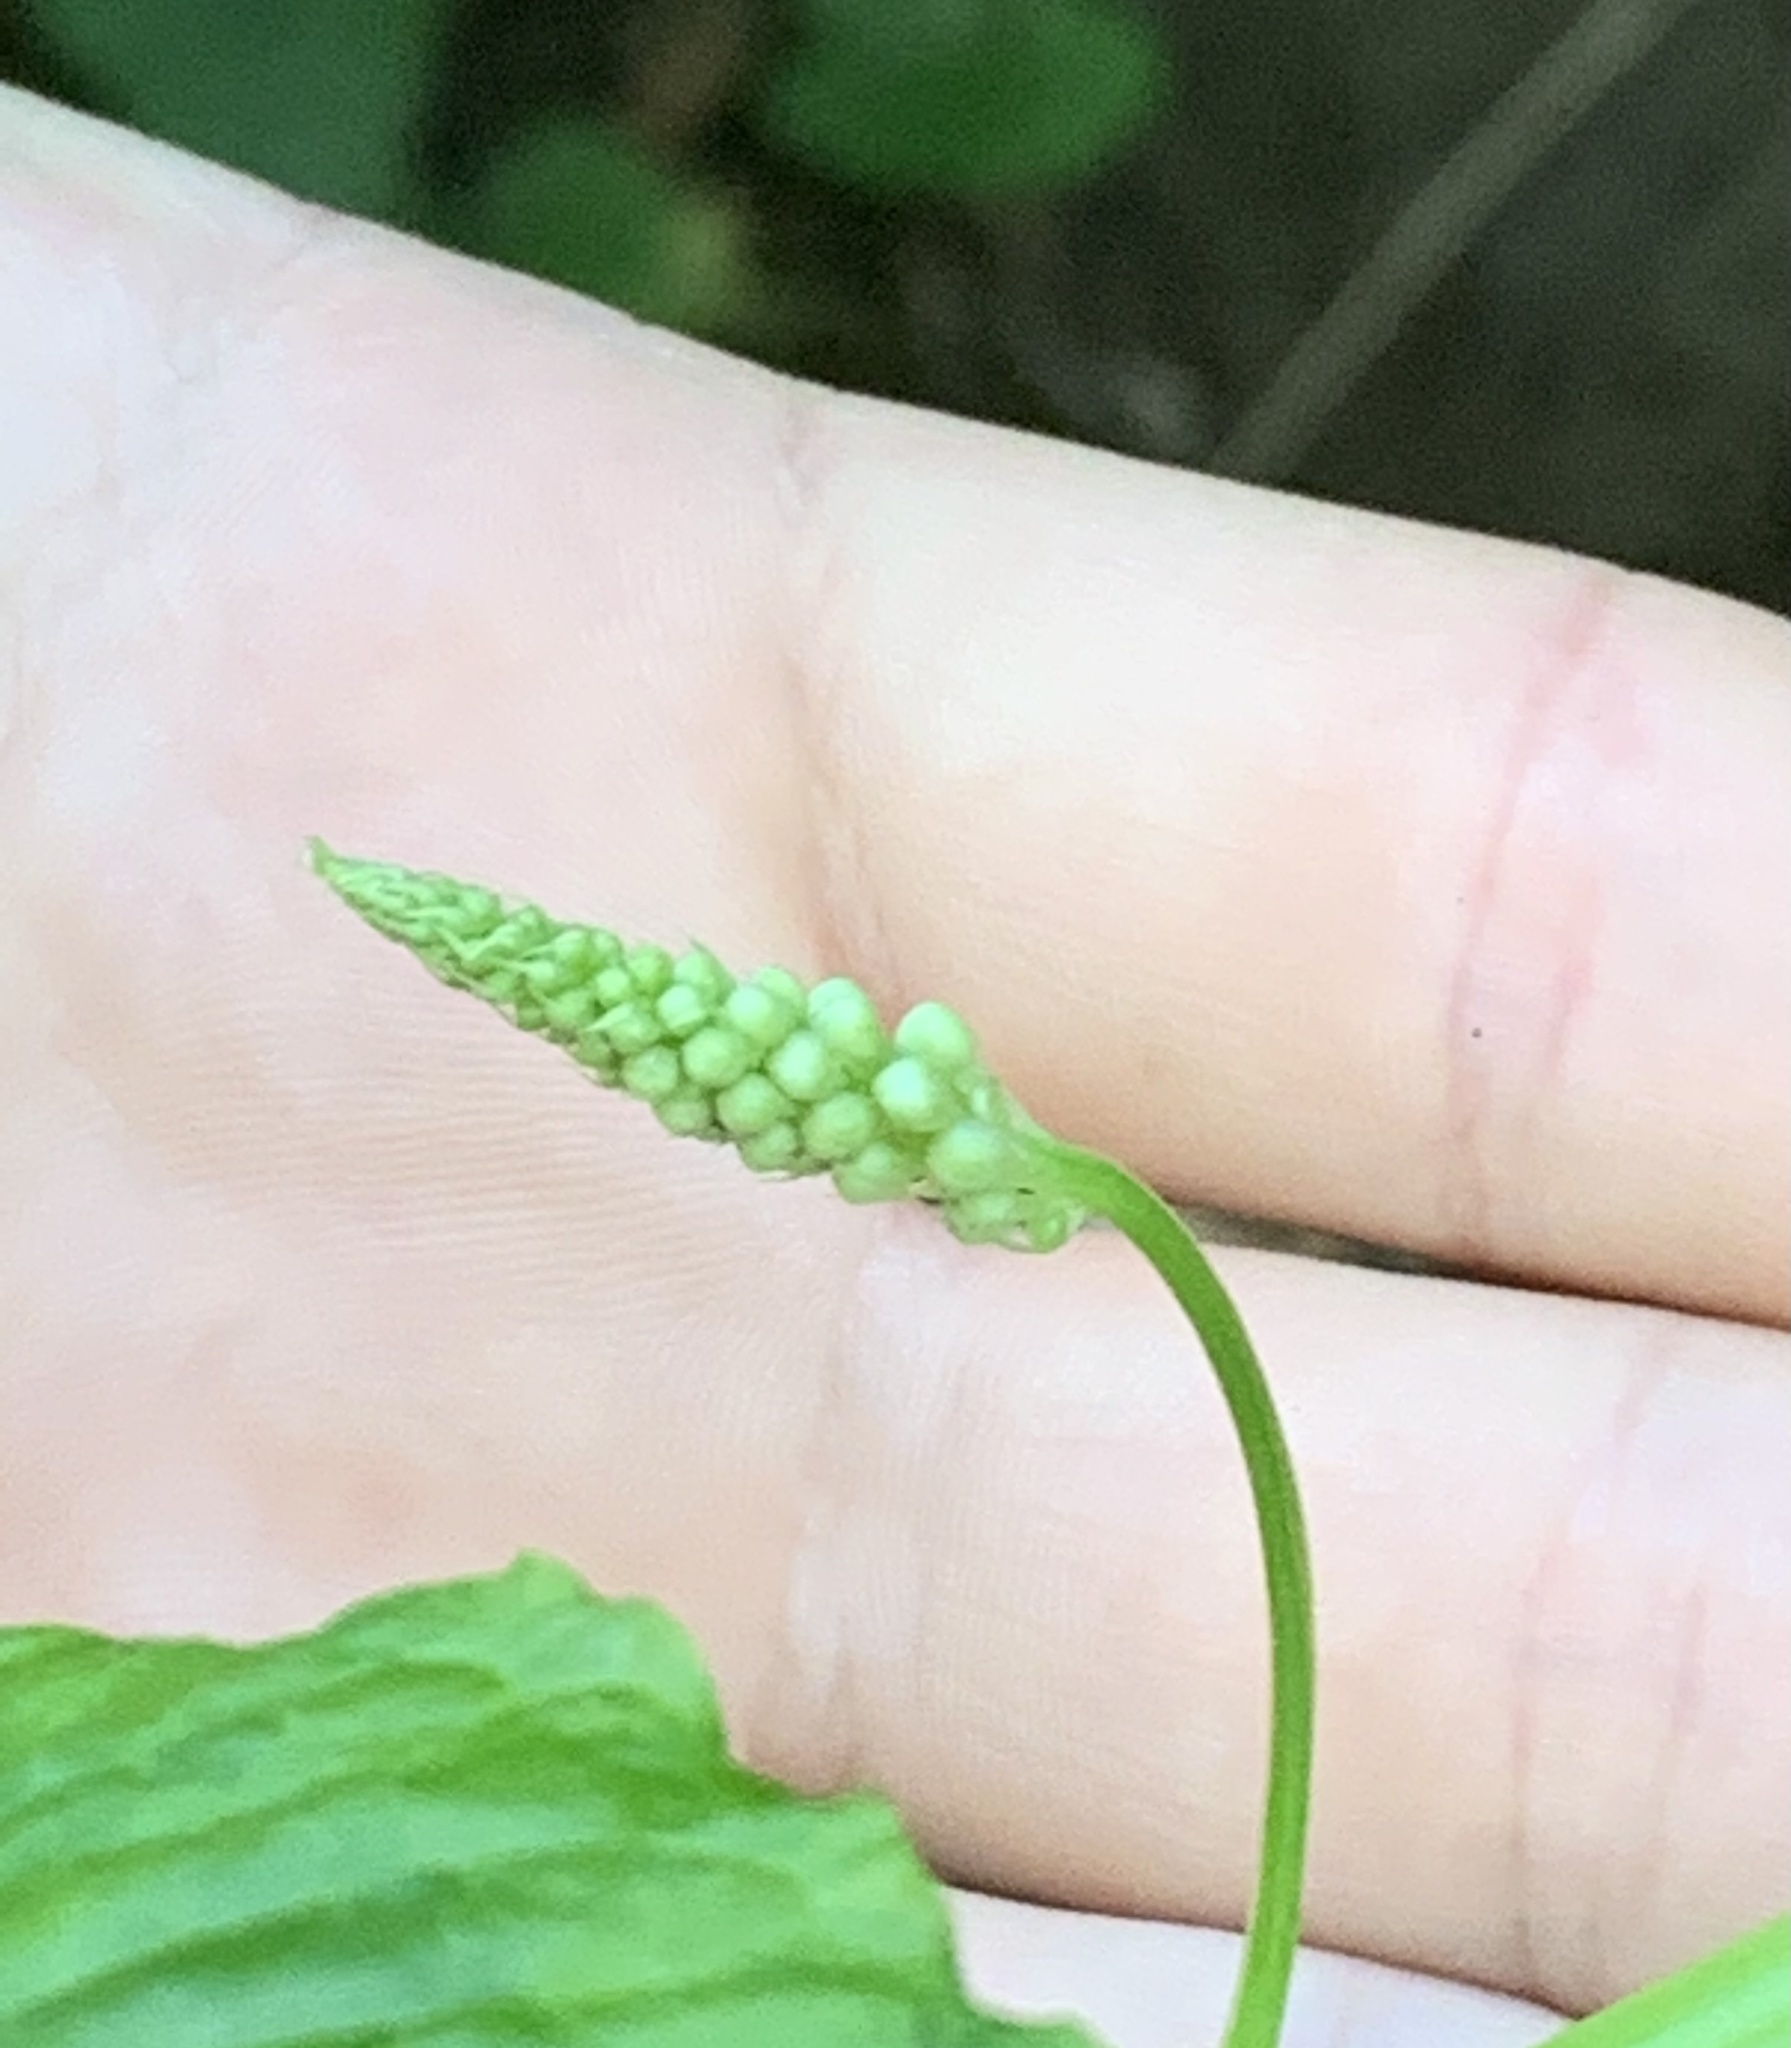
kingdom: Plantae
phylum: Tracheophyta
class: Magnoliopsida
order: Caryophyllales
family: Phytolaccaceae
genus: Phytolacca
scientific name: Phytolacca americana
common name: American pokeweed
